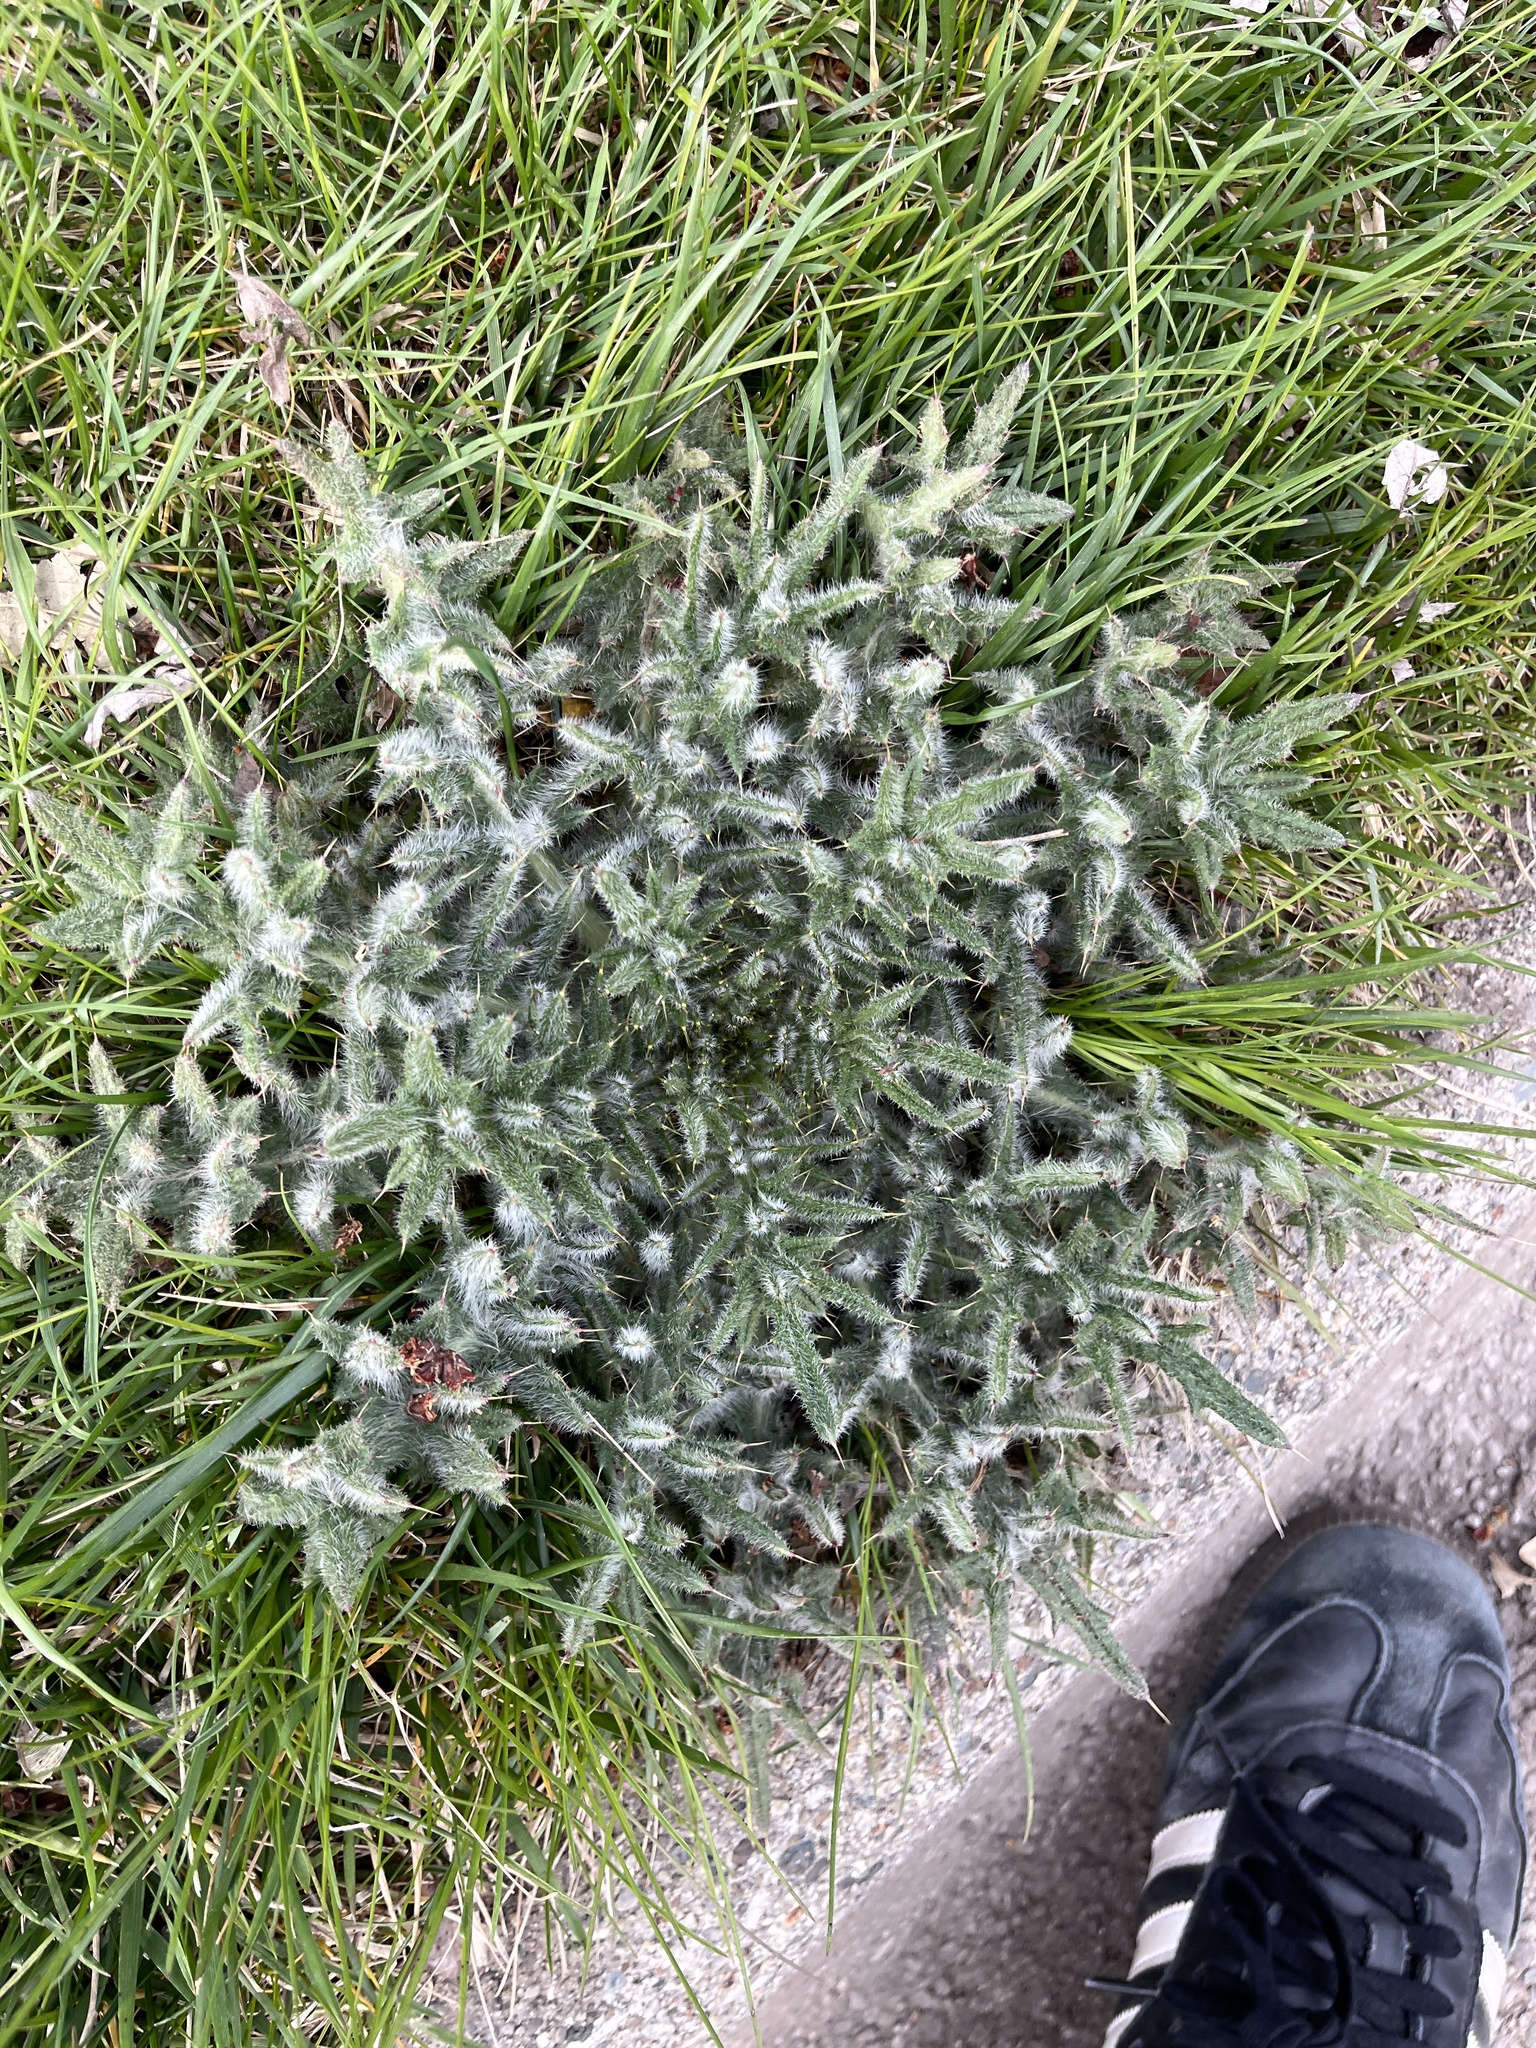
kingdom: Plantae
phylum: Tracheophyta
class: Magnoliopsida
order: Asterales
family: Asteraceae
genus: Cirsium
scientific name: Cirsium vulgare
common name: Bull thistle
